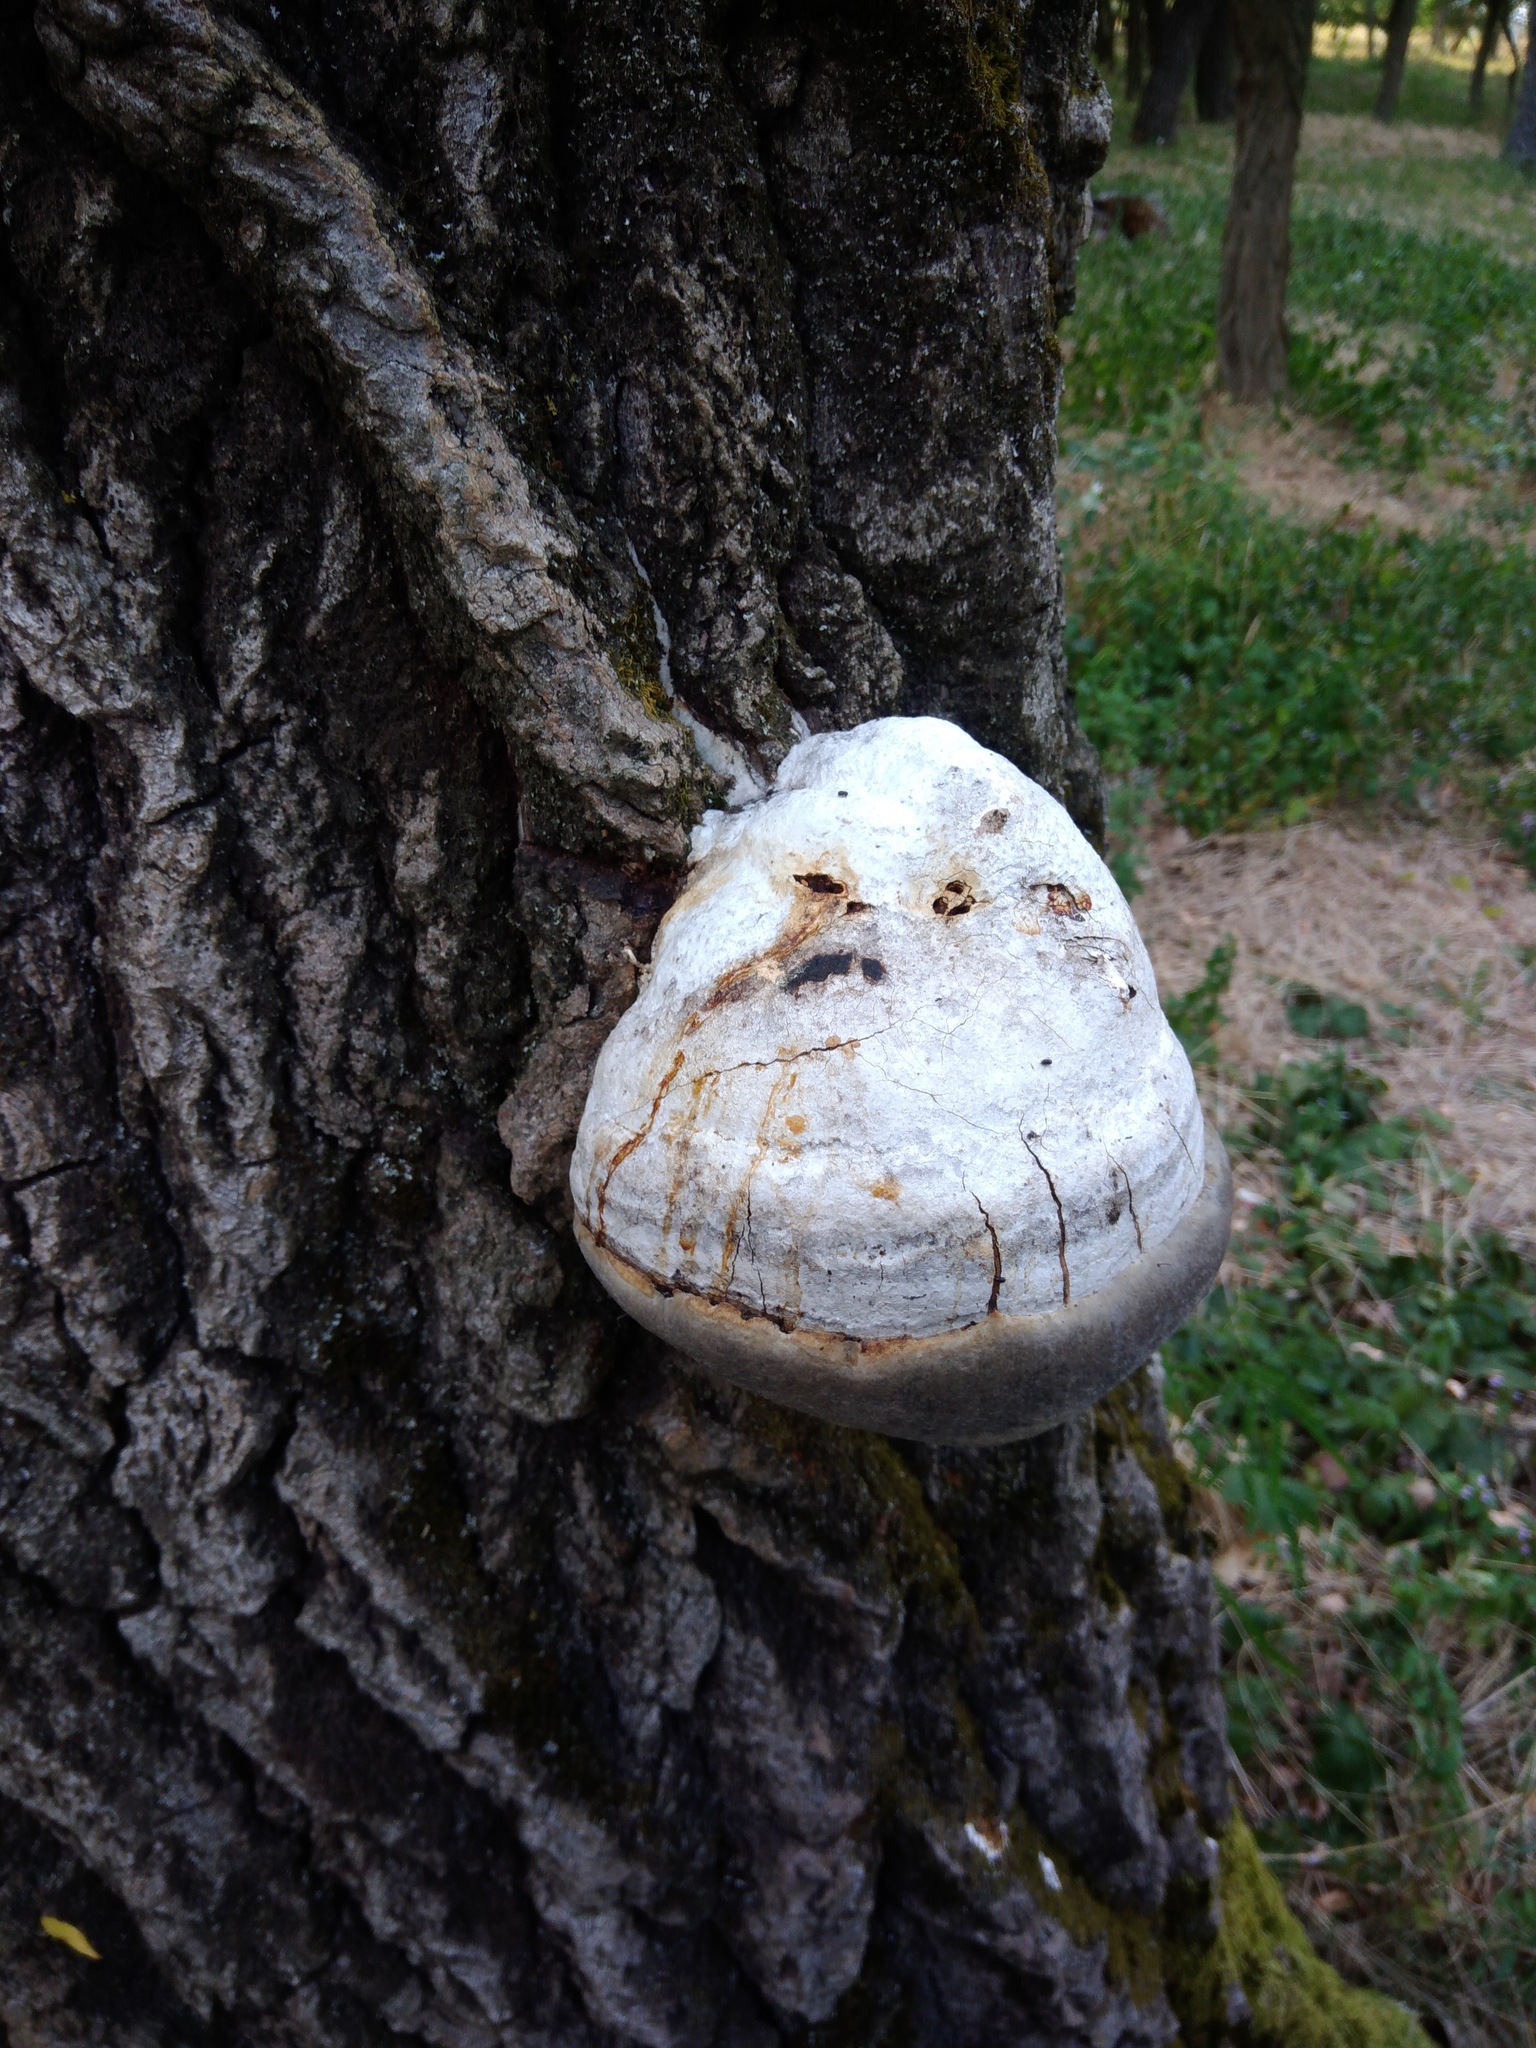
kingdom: Fungi
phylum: Basidiomycota
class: Agaricomycetes
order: Polyporales
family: Polyporaceae
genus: Fomes
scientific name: Fomes fomentarius
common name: Hoof fungus
